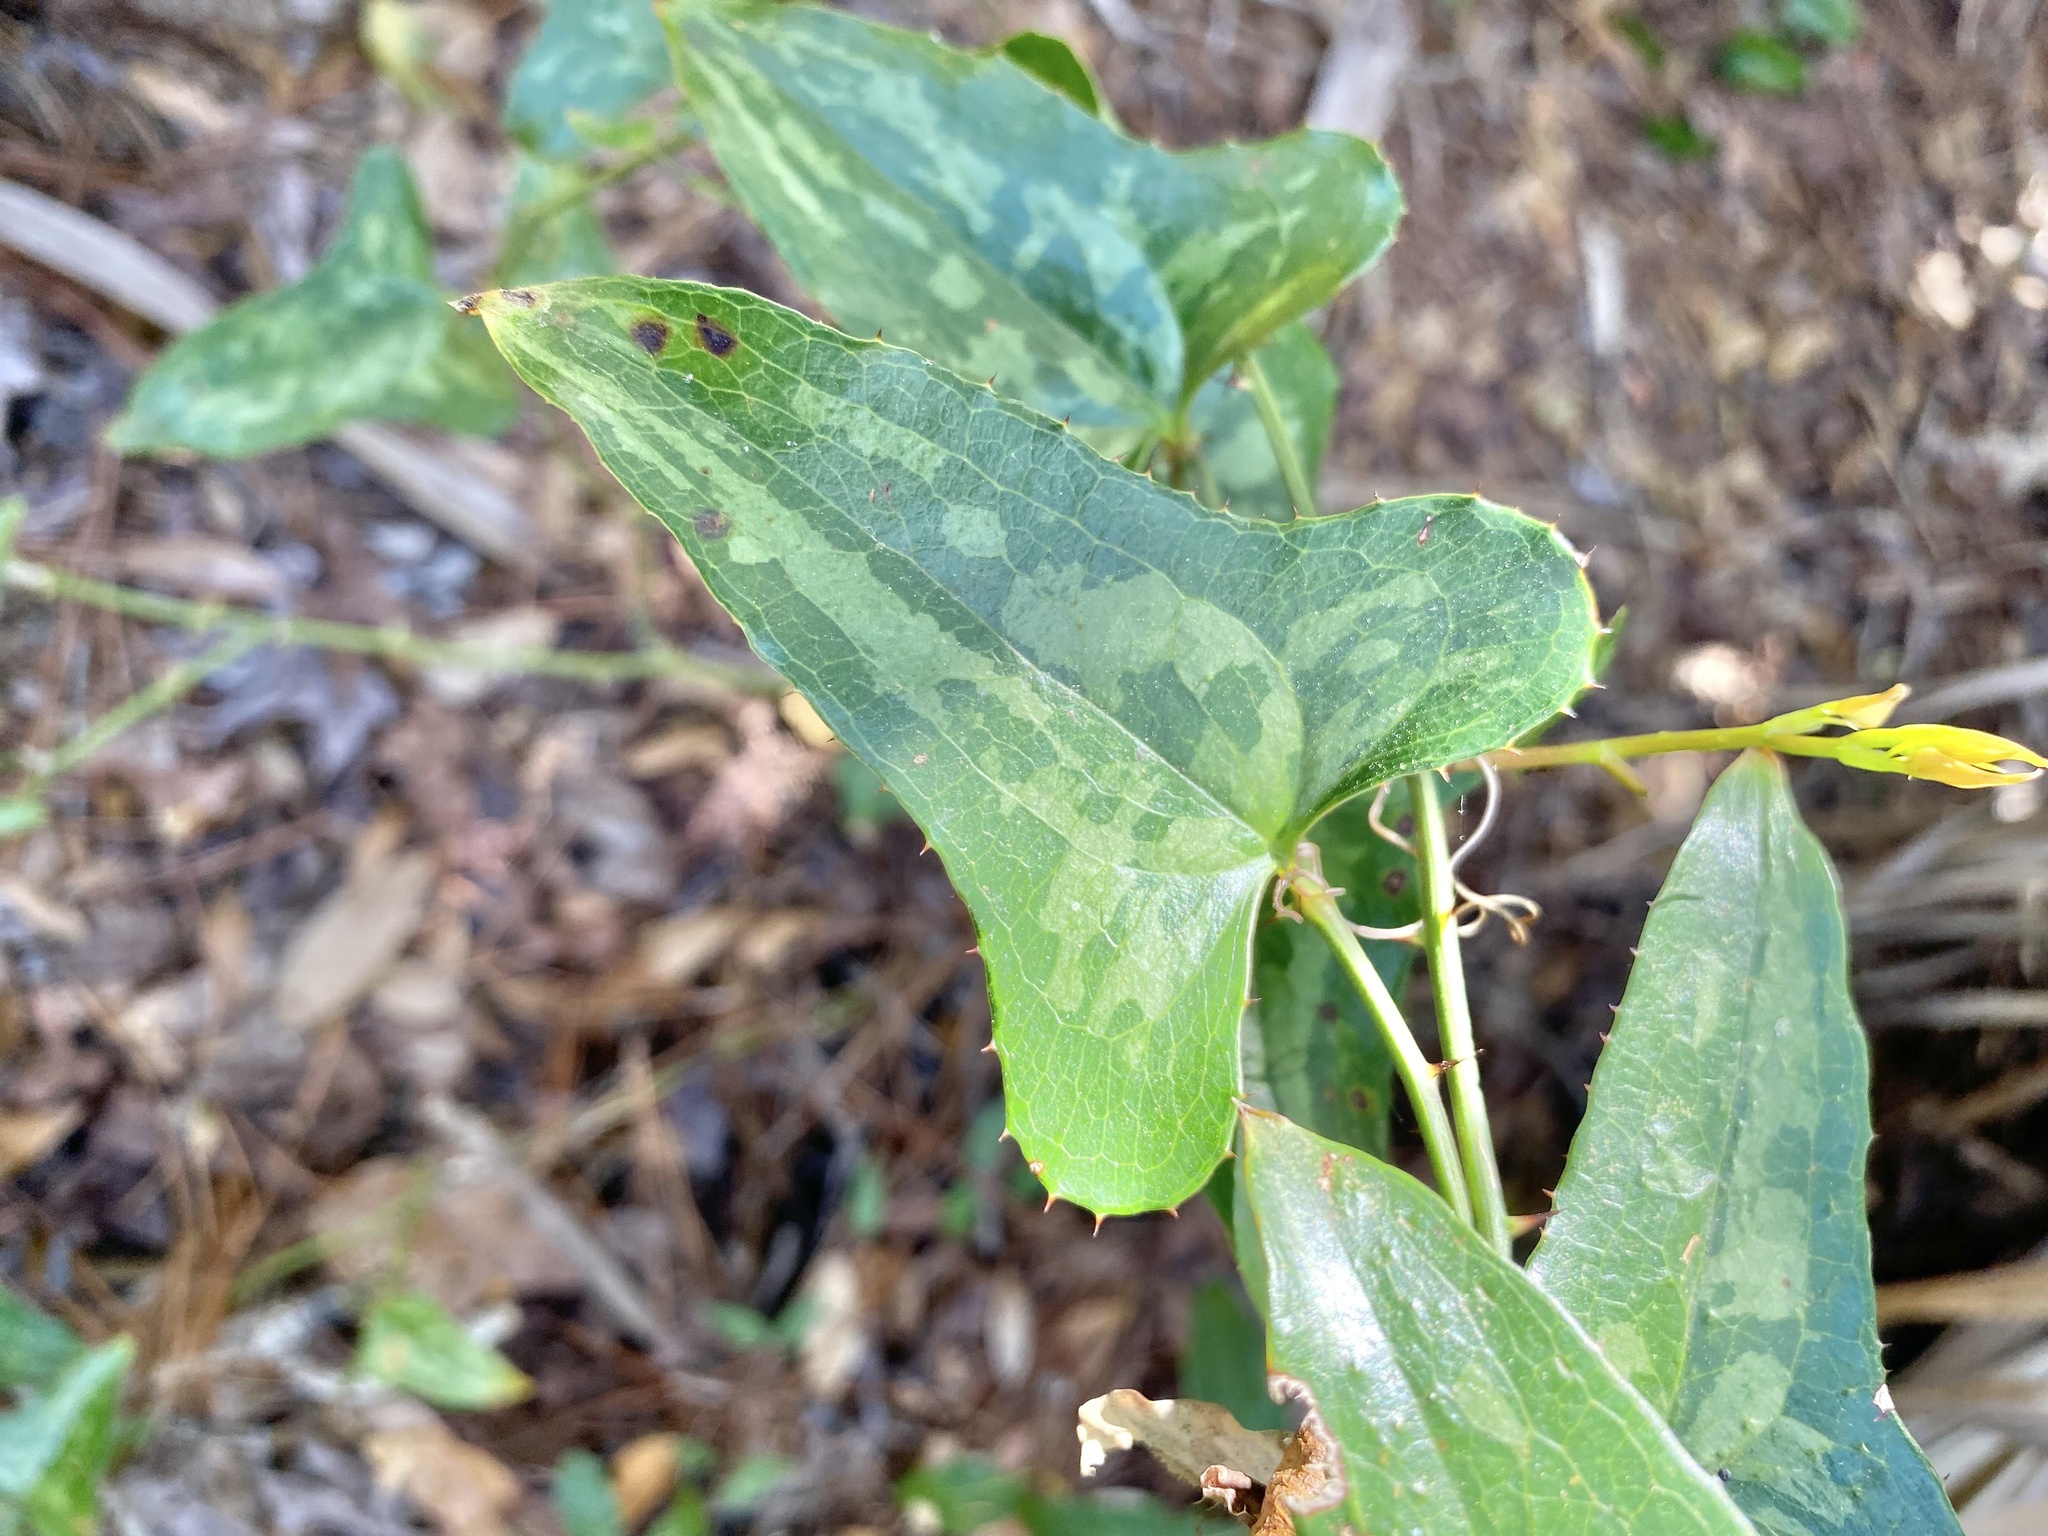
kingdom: Plantae
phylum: Tracheophyta
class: Liliopsida
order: Liliales
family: Smilacaceae
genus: Smilax
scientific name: Smilax bona-nox
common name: Catbrier
